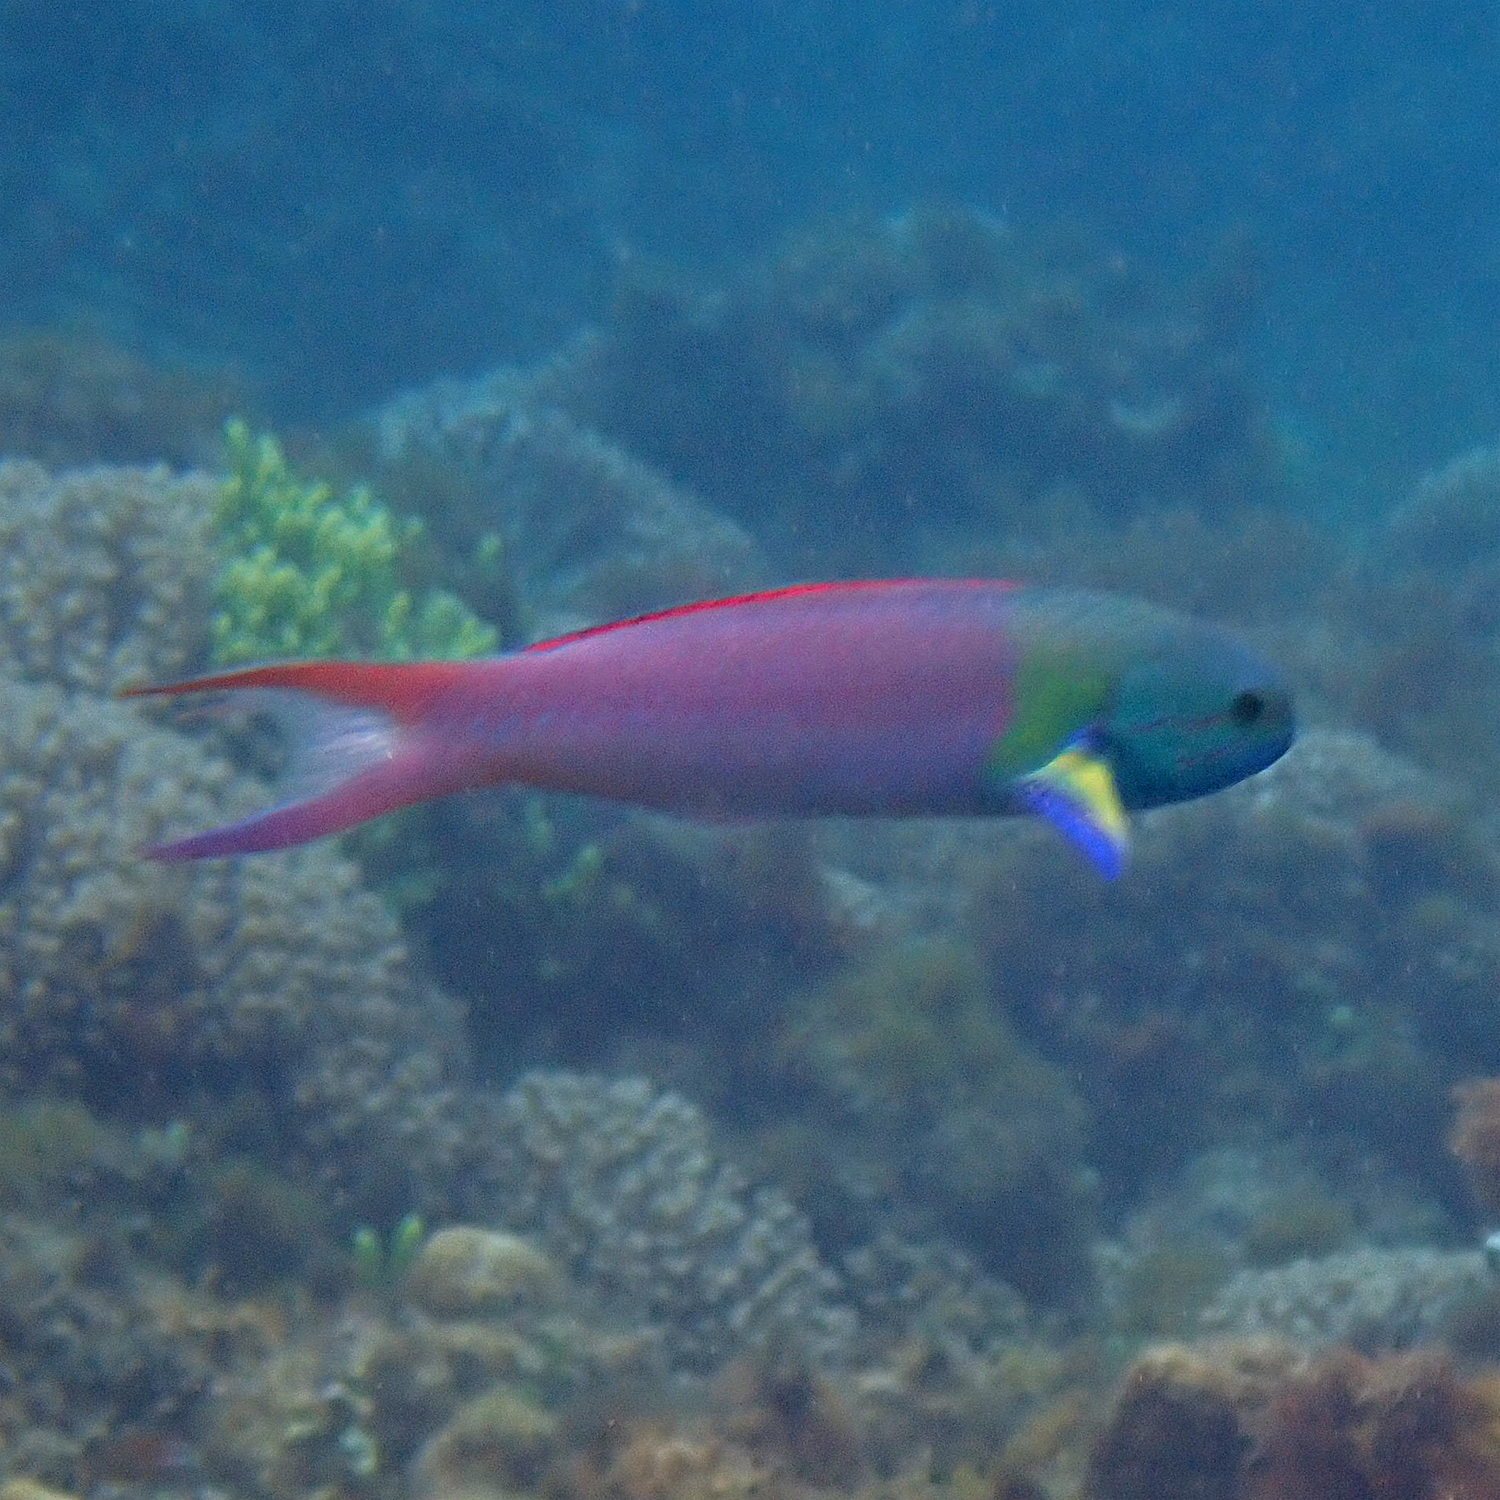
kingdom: Animalia
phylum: Chordata
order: Perciformes
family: Labridae
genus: Thalassoma
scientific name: Thalassoma amblycephalum
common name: Bluehead wrasse
